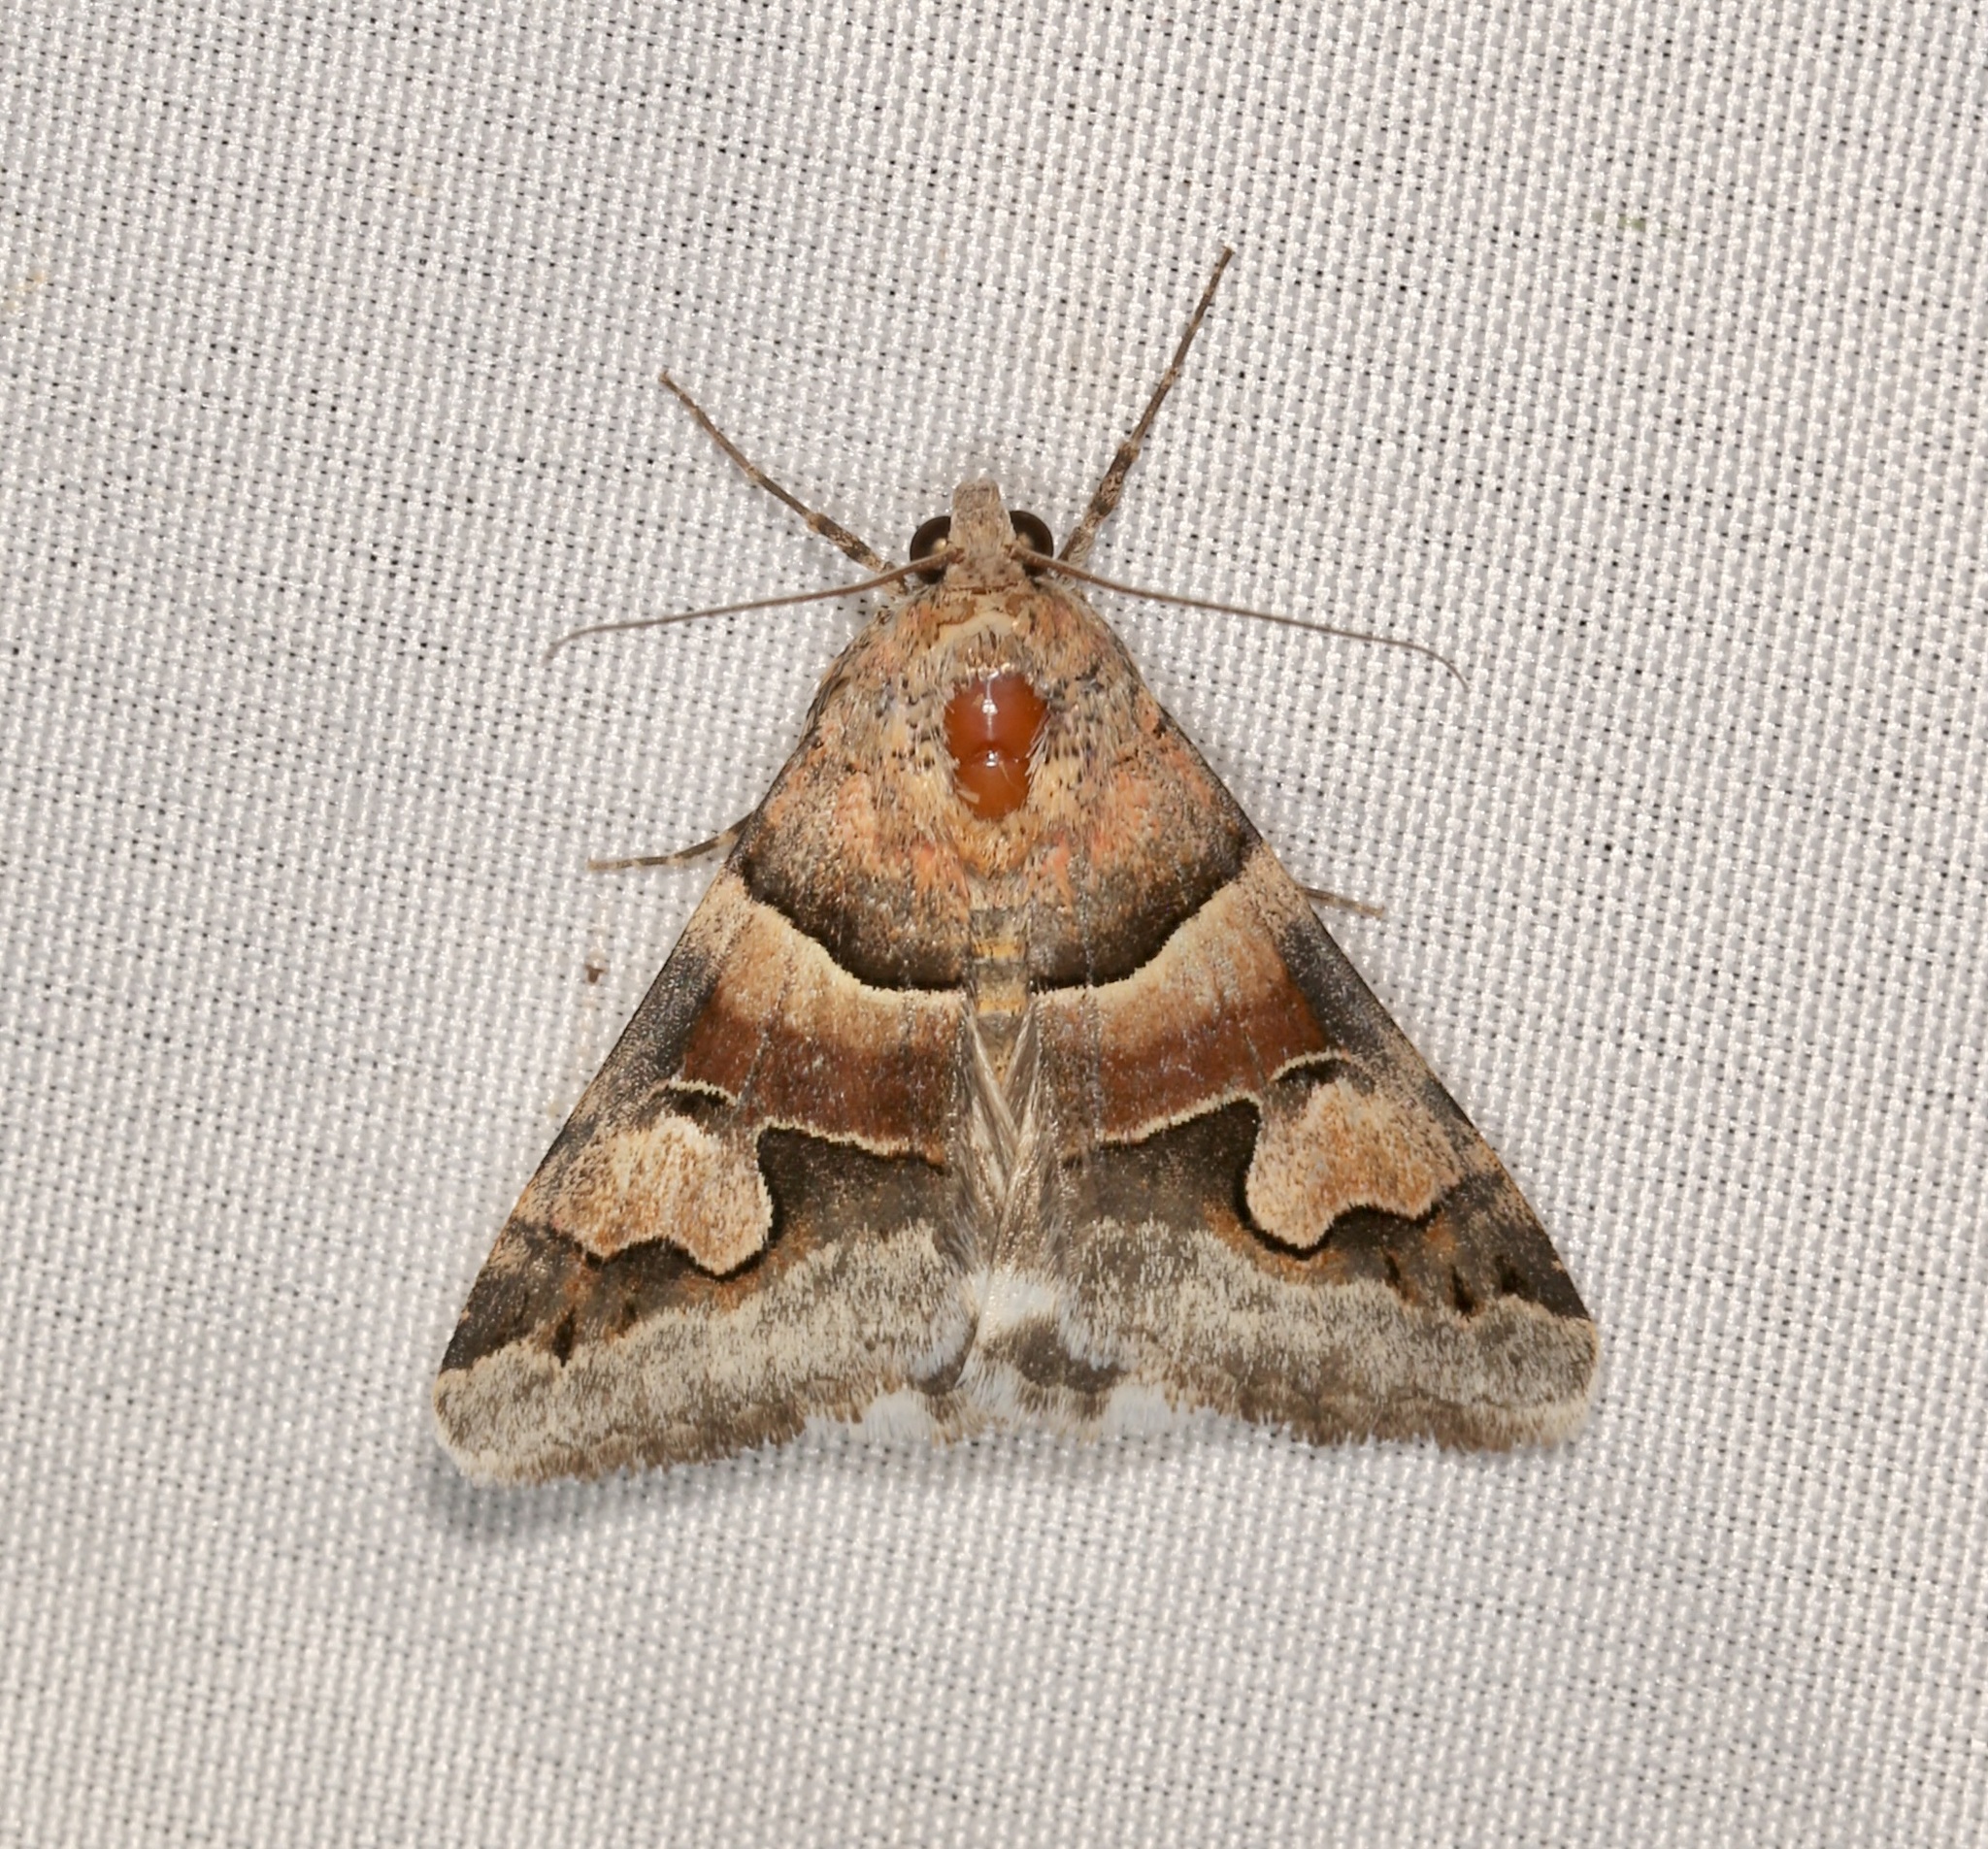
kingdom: Animalia
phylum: Arthropoda
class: Insecta
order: Lepidoptera
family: Erebidae
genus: Drasteria
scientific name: Drasteria pallescens
